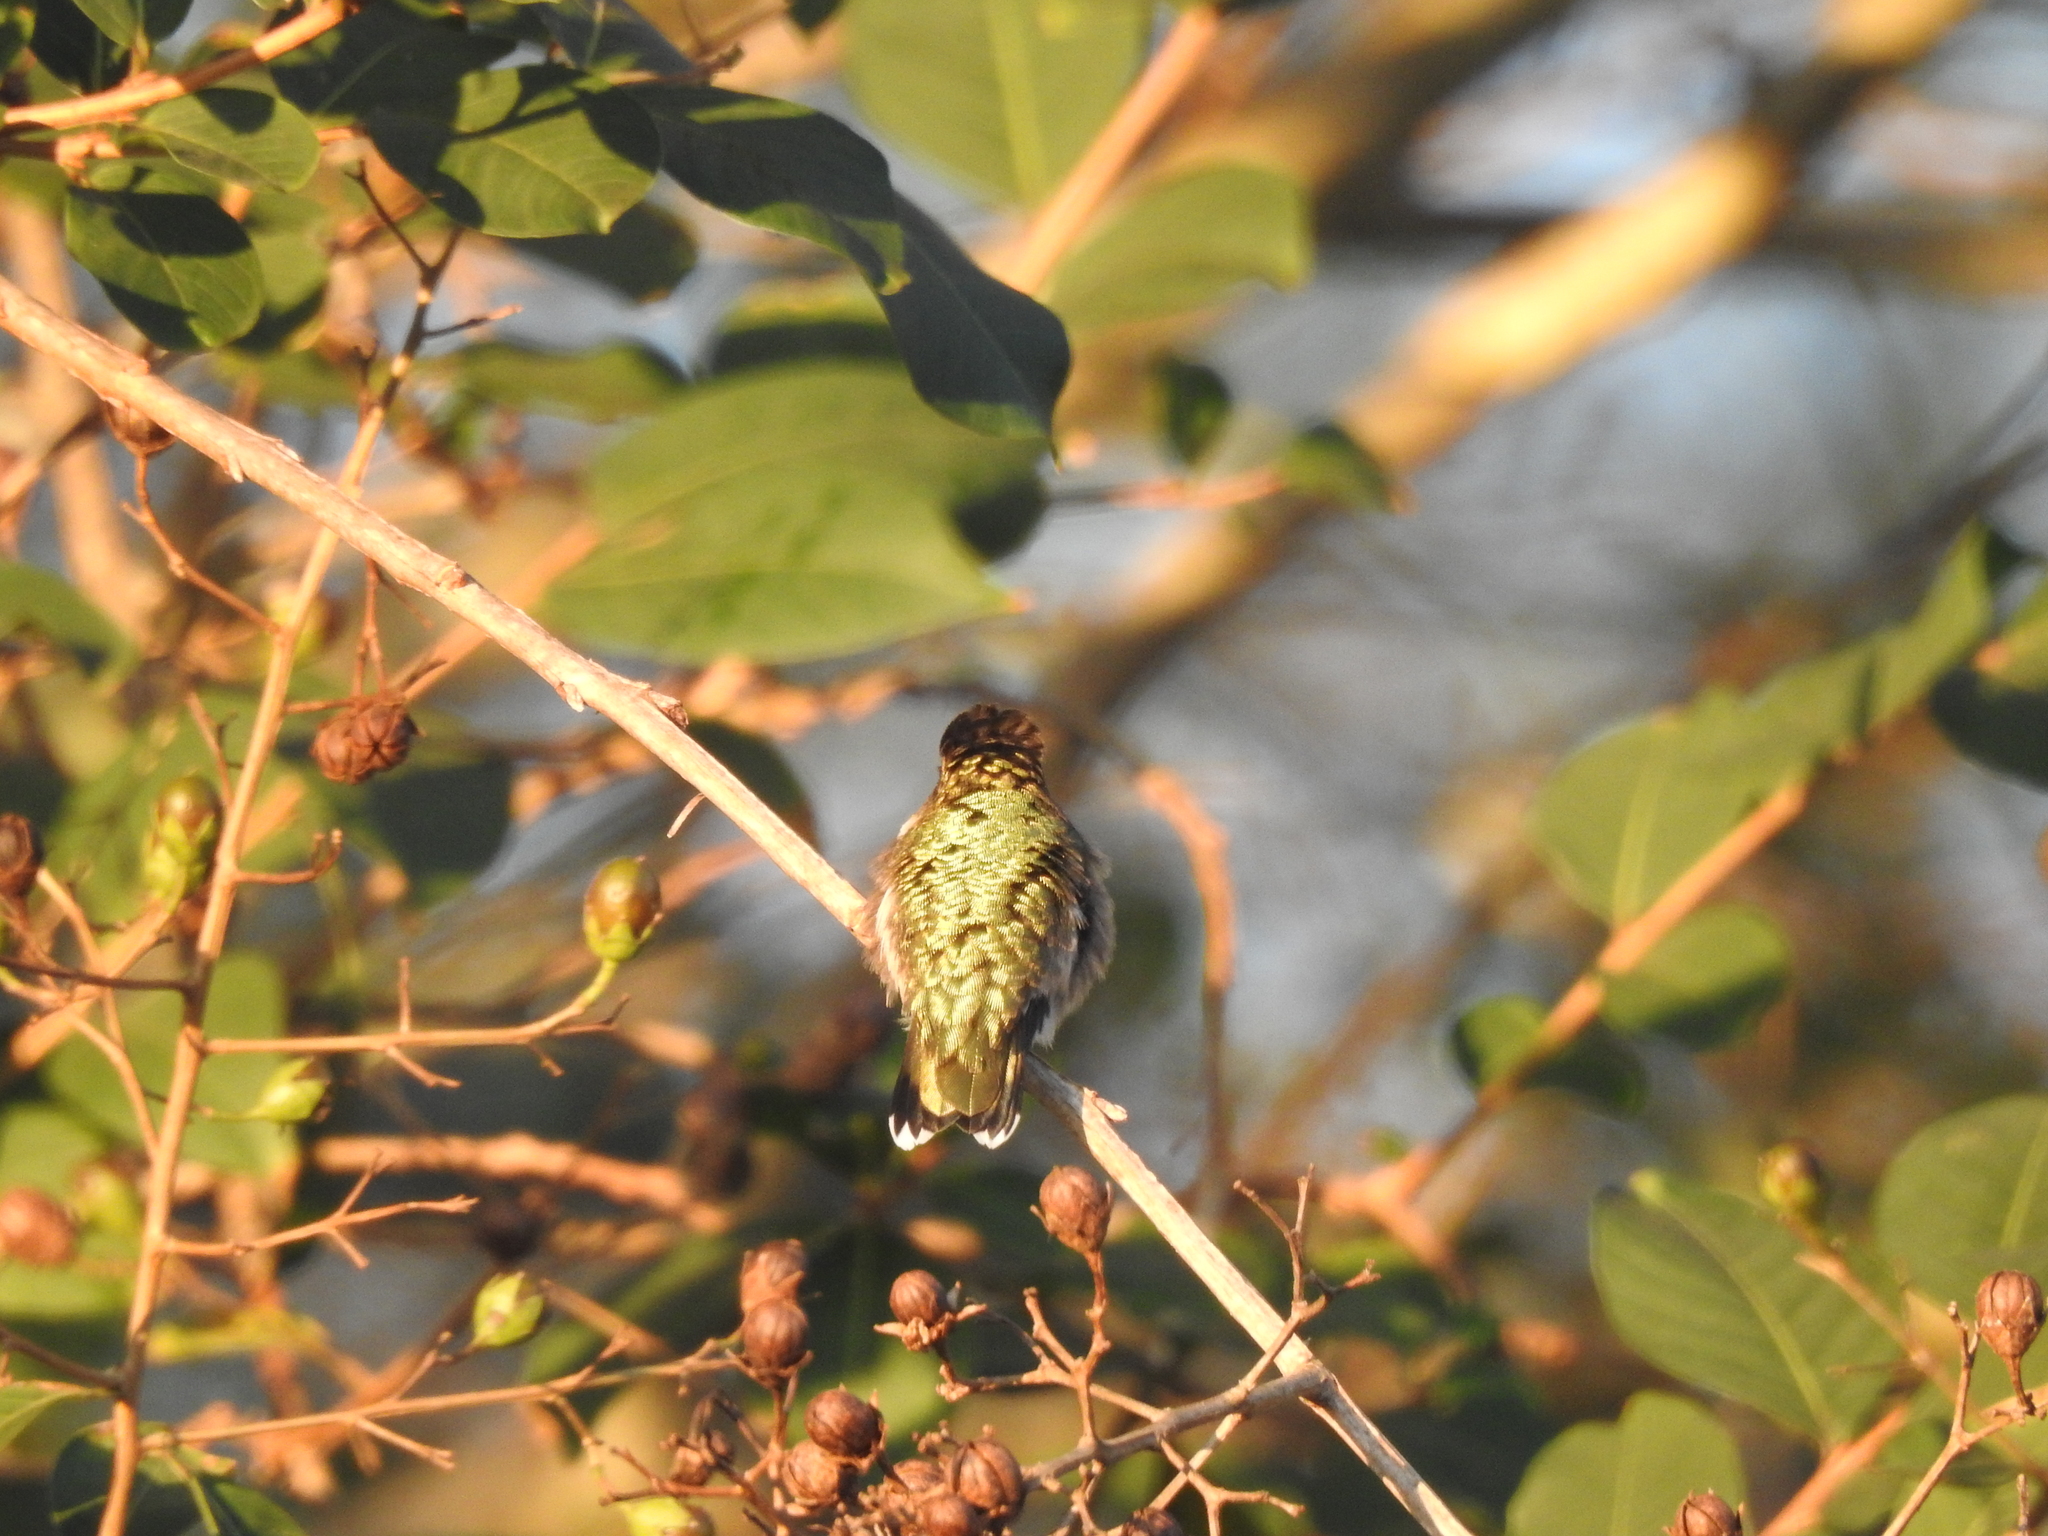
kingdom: Animalia
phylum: Chordata
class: Aves
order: Apodiformes
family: Trochilidae
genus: Archilochus
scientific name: Archilochus colubris
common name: Ruby-throated hummingbird
